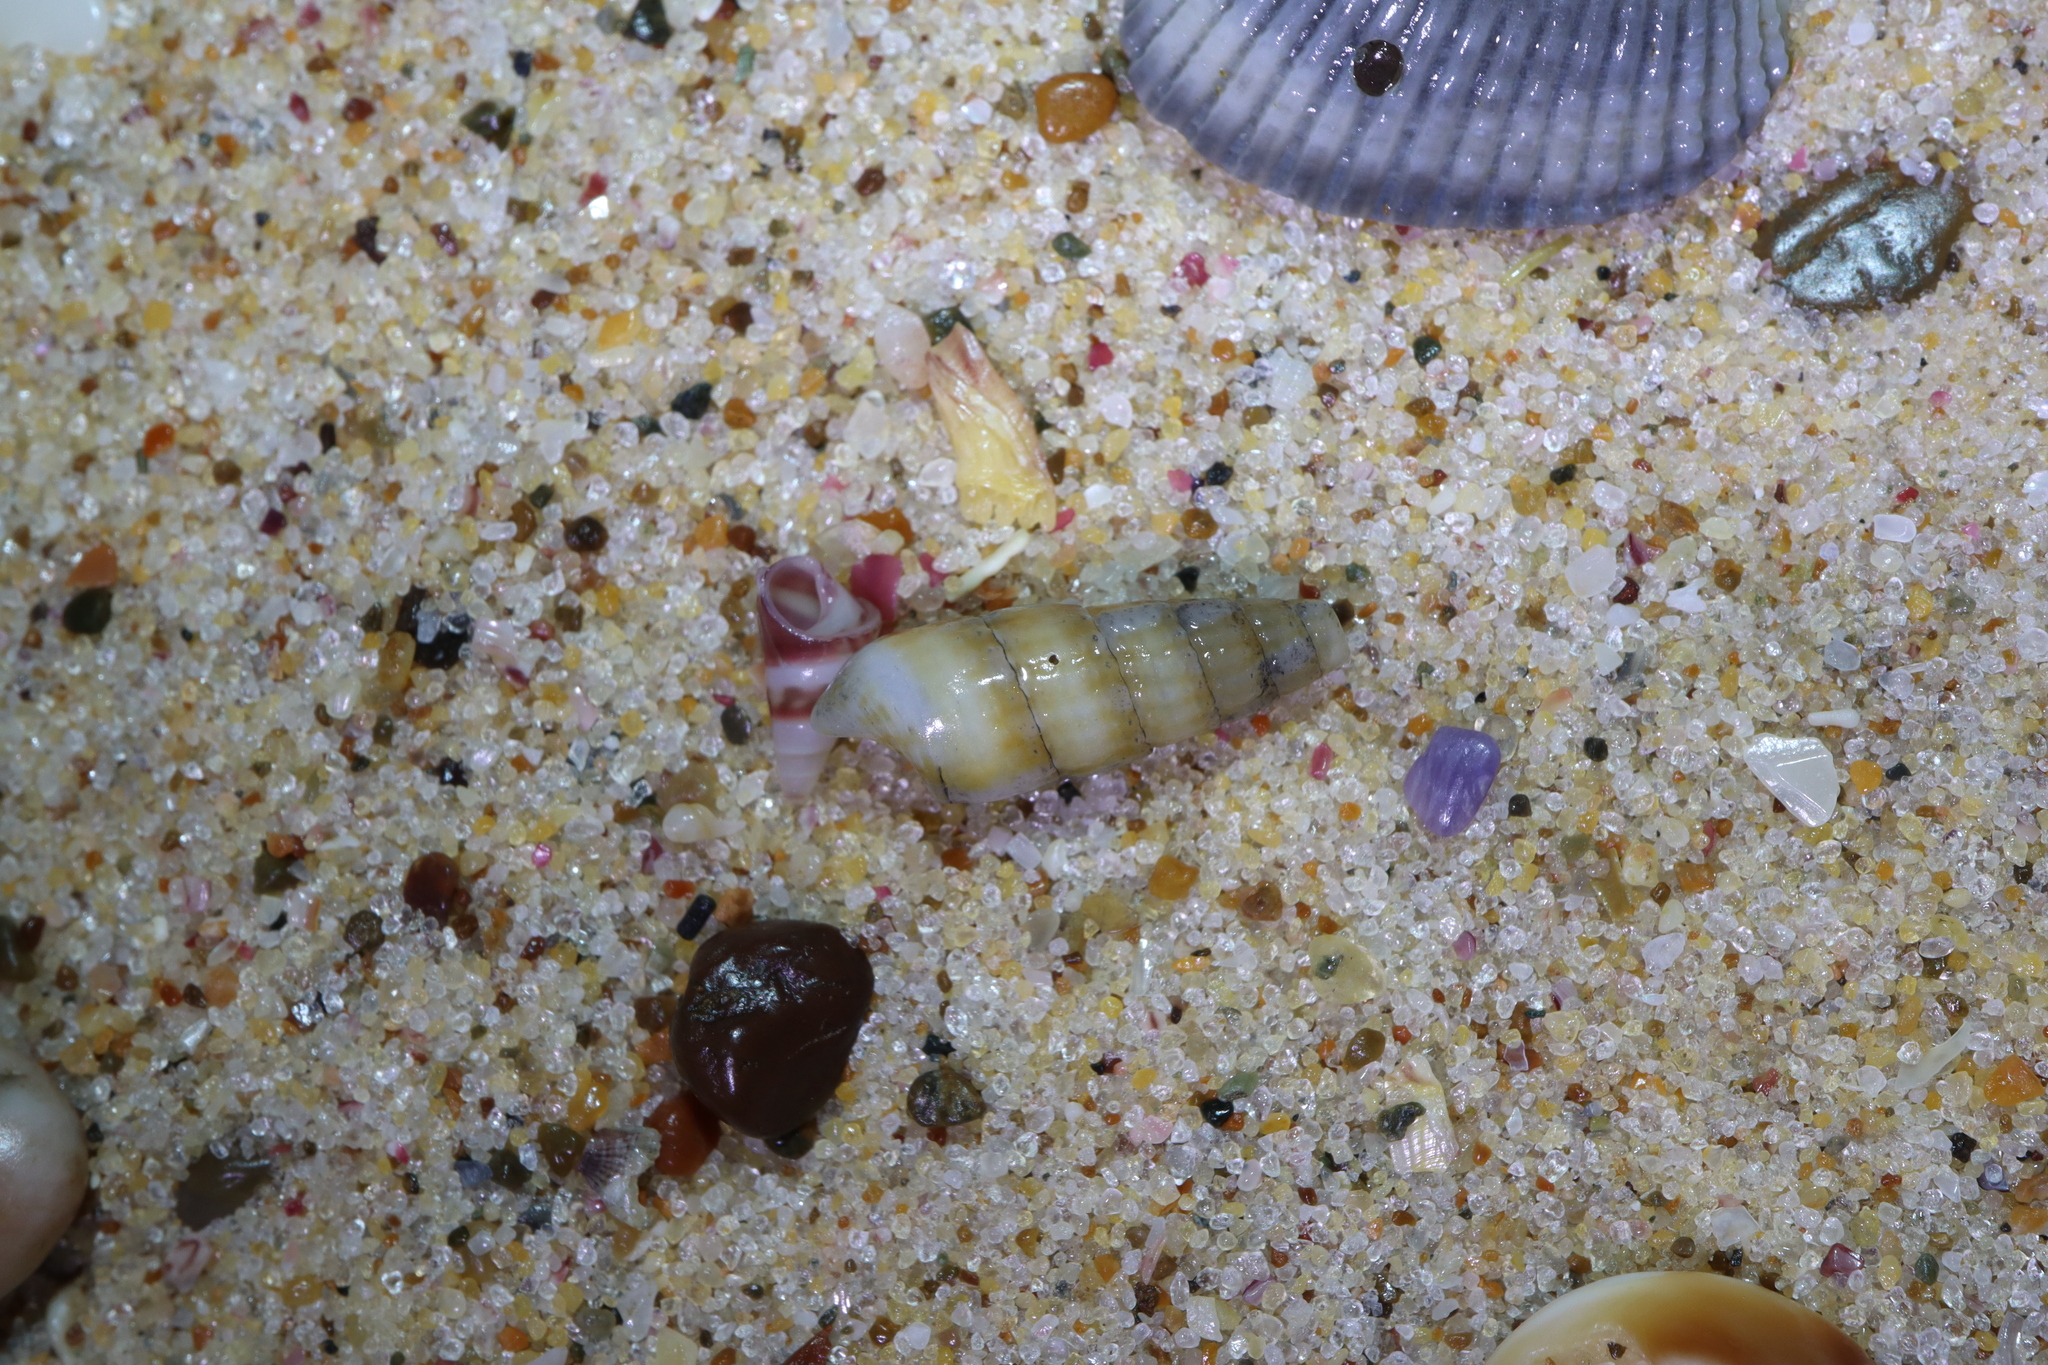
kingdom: Animalia
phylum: Mollusca
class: Gastropoda
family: Cerithiidae
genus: Cacozeliana
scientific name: Cacozeliana granarium
